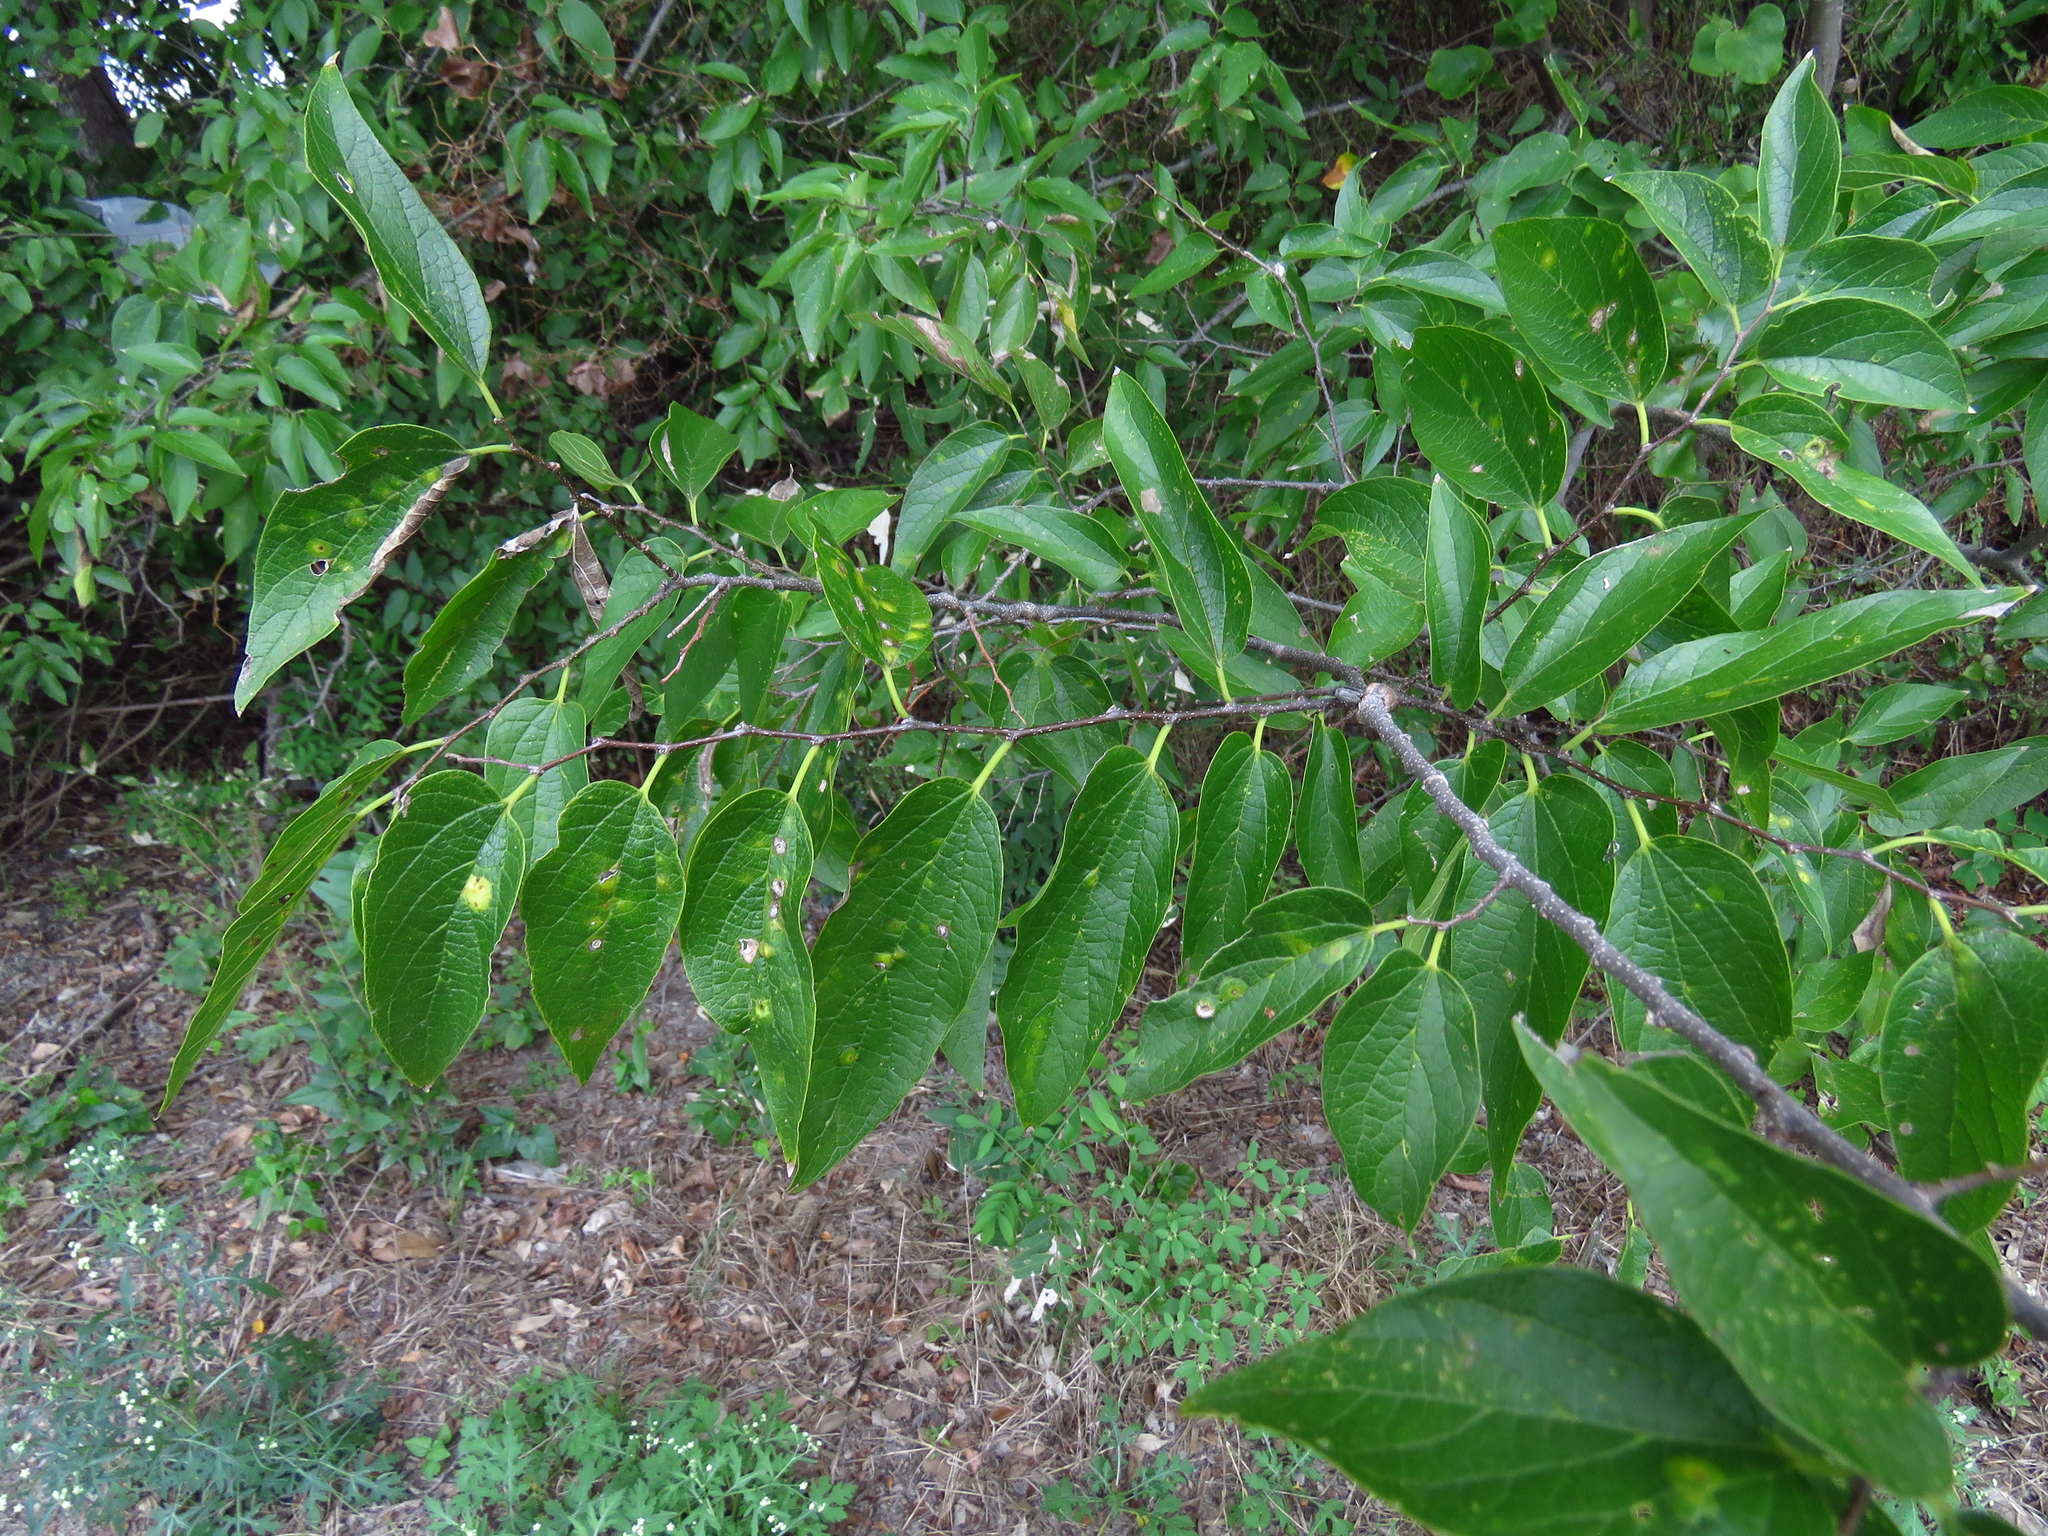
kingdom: Plantae
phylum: Tracheophyta
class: Magnoliopsida
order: Rosales
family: Cannabaceae
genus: Celtis
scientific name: Celtis laevigata
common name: Sugarberry
